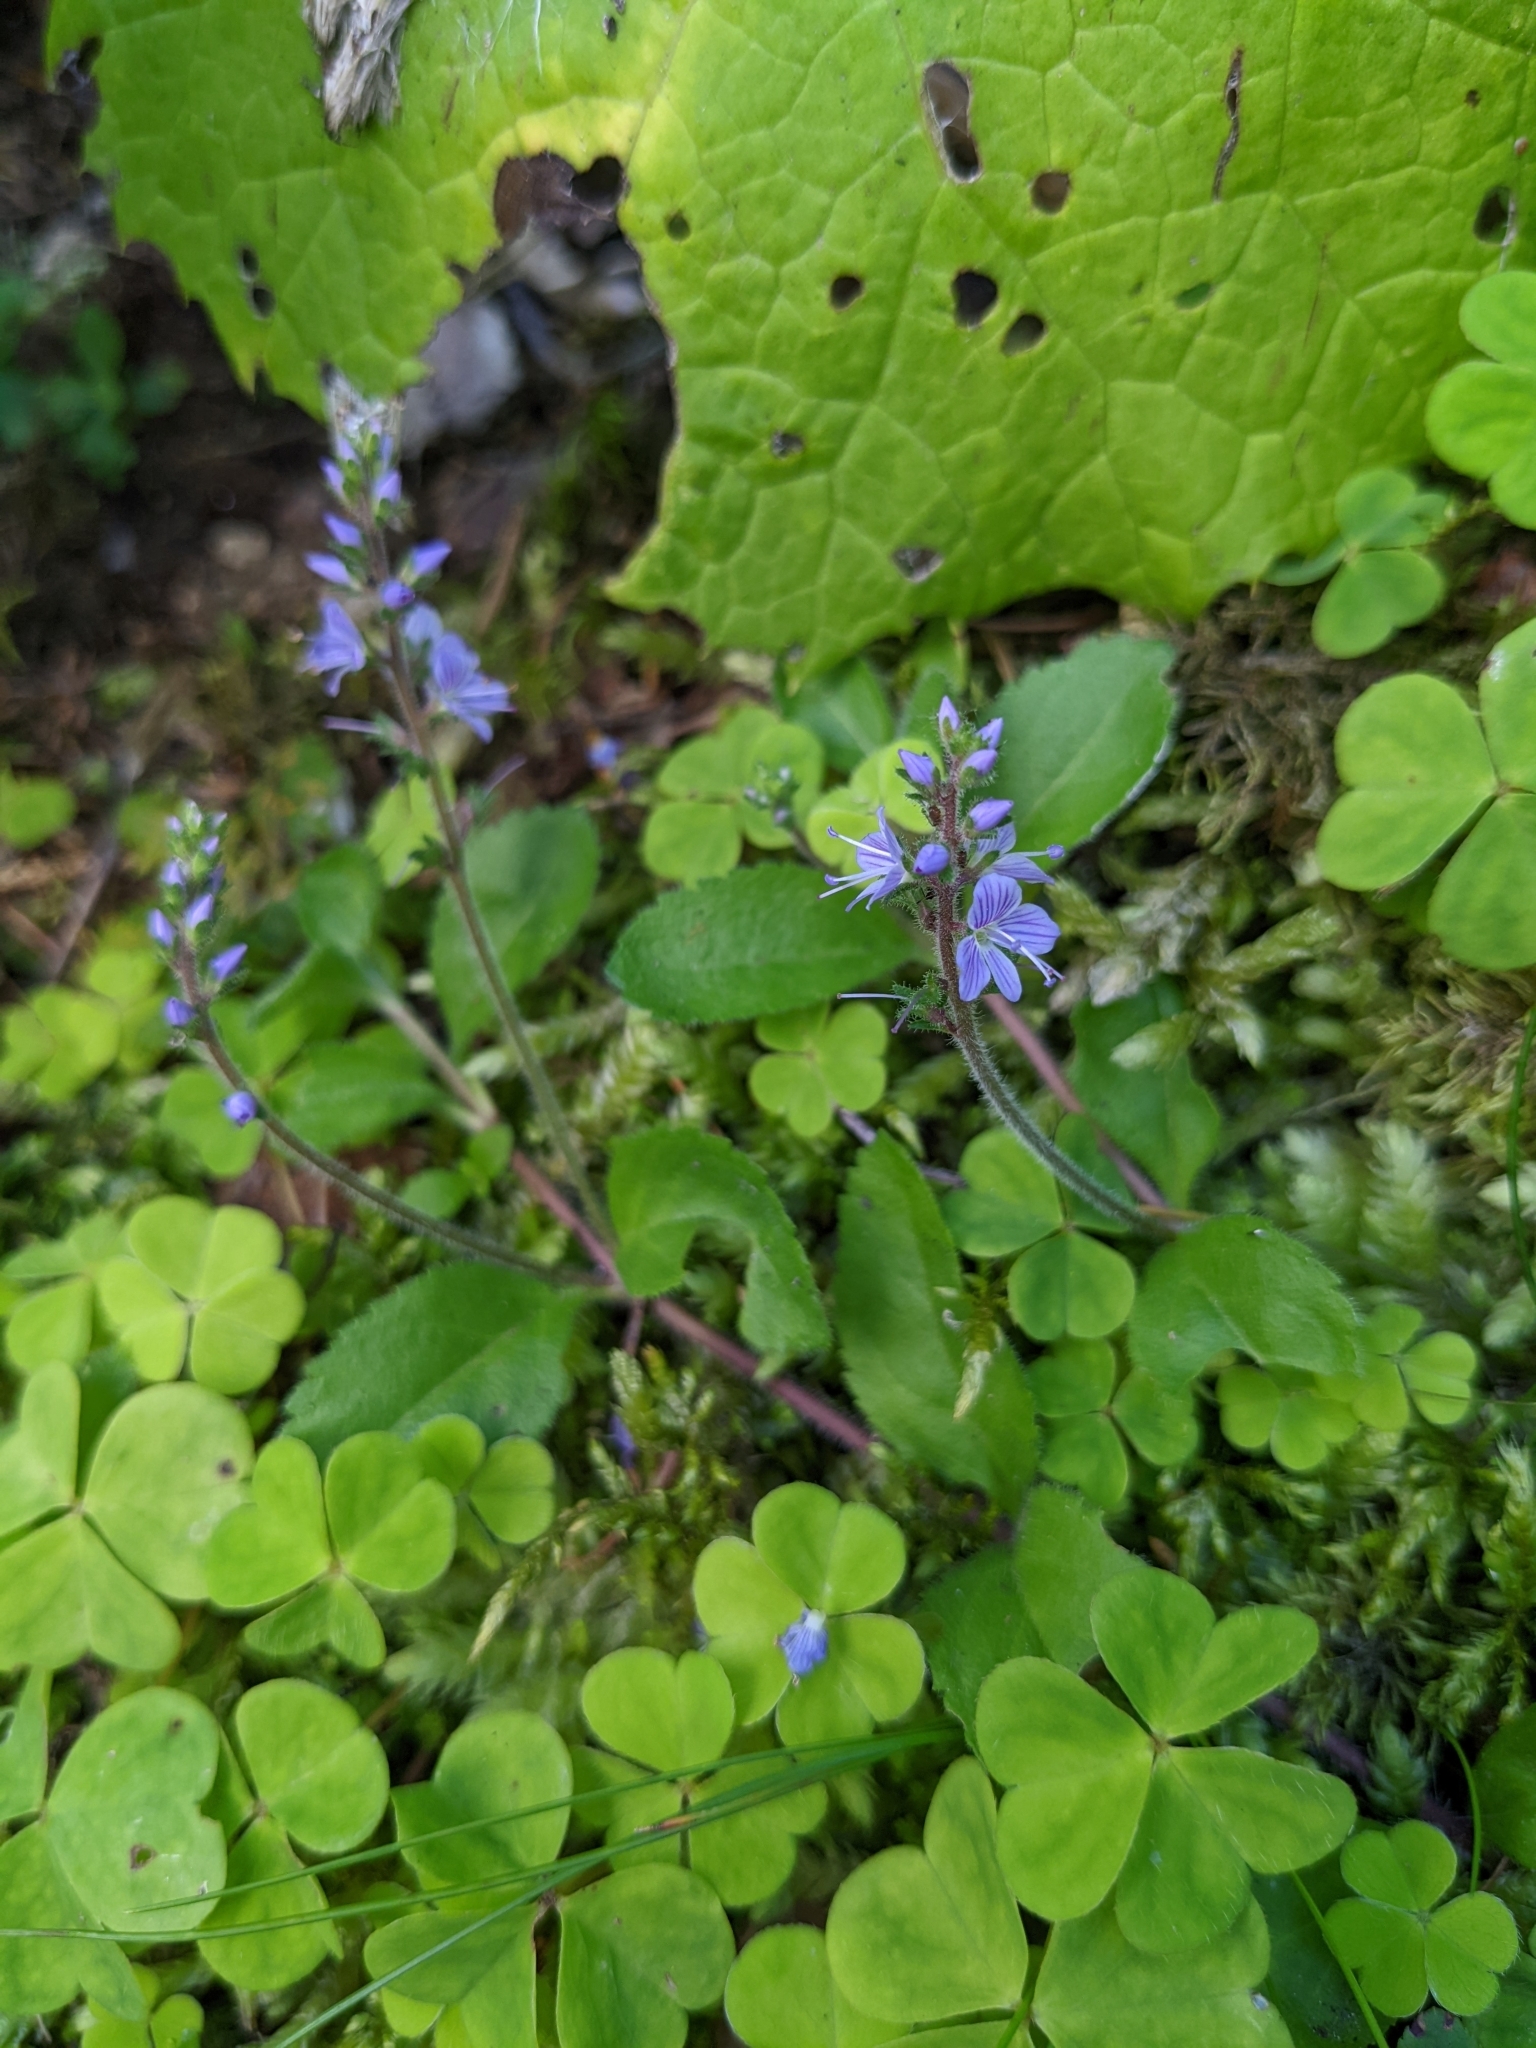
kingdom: Plantae
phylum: Tracheophyta
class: Magnoliopsida
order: Lamiales
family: Plantaginaceae
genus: Veronica
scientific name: Veronica officinalis
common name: Common speedwell
